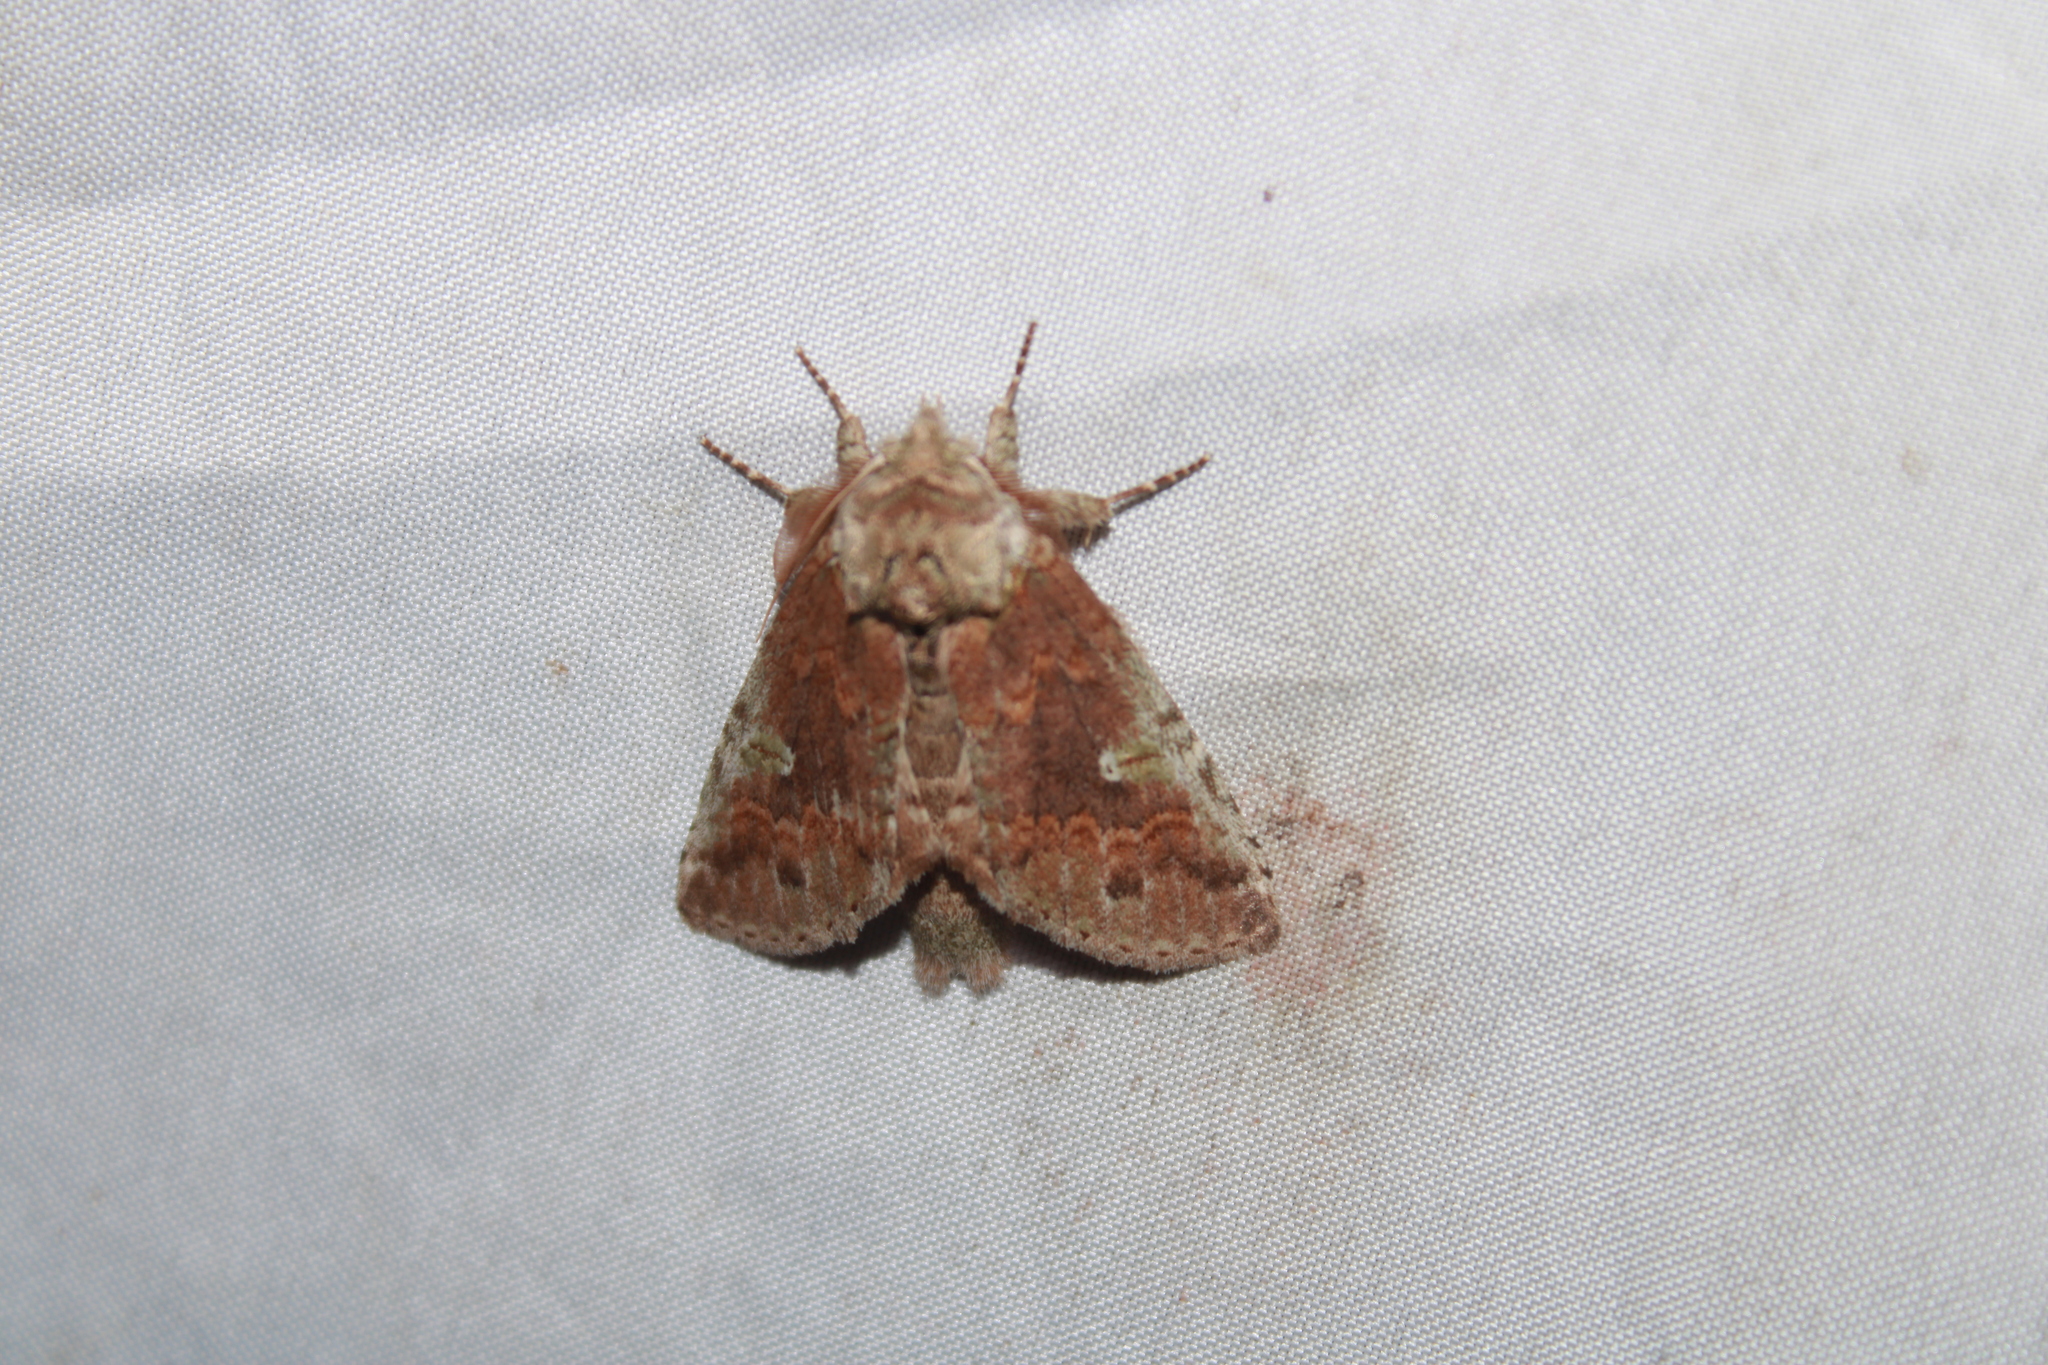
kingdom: Animalia
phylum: Arthropoda
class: Insecta
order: Lepidoptera
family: Notodontidae
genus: Macrurocampa
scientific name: Macrurocampa
